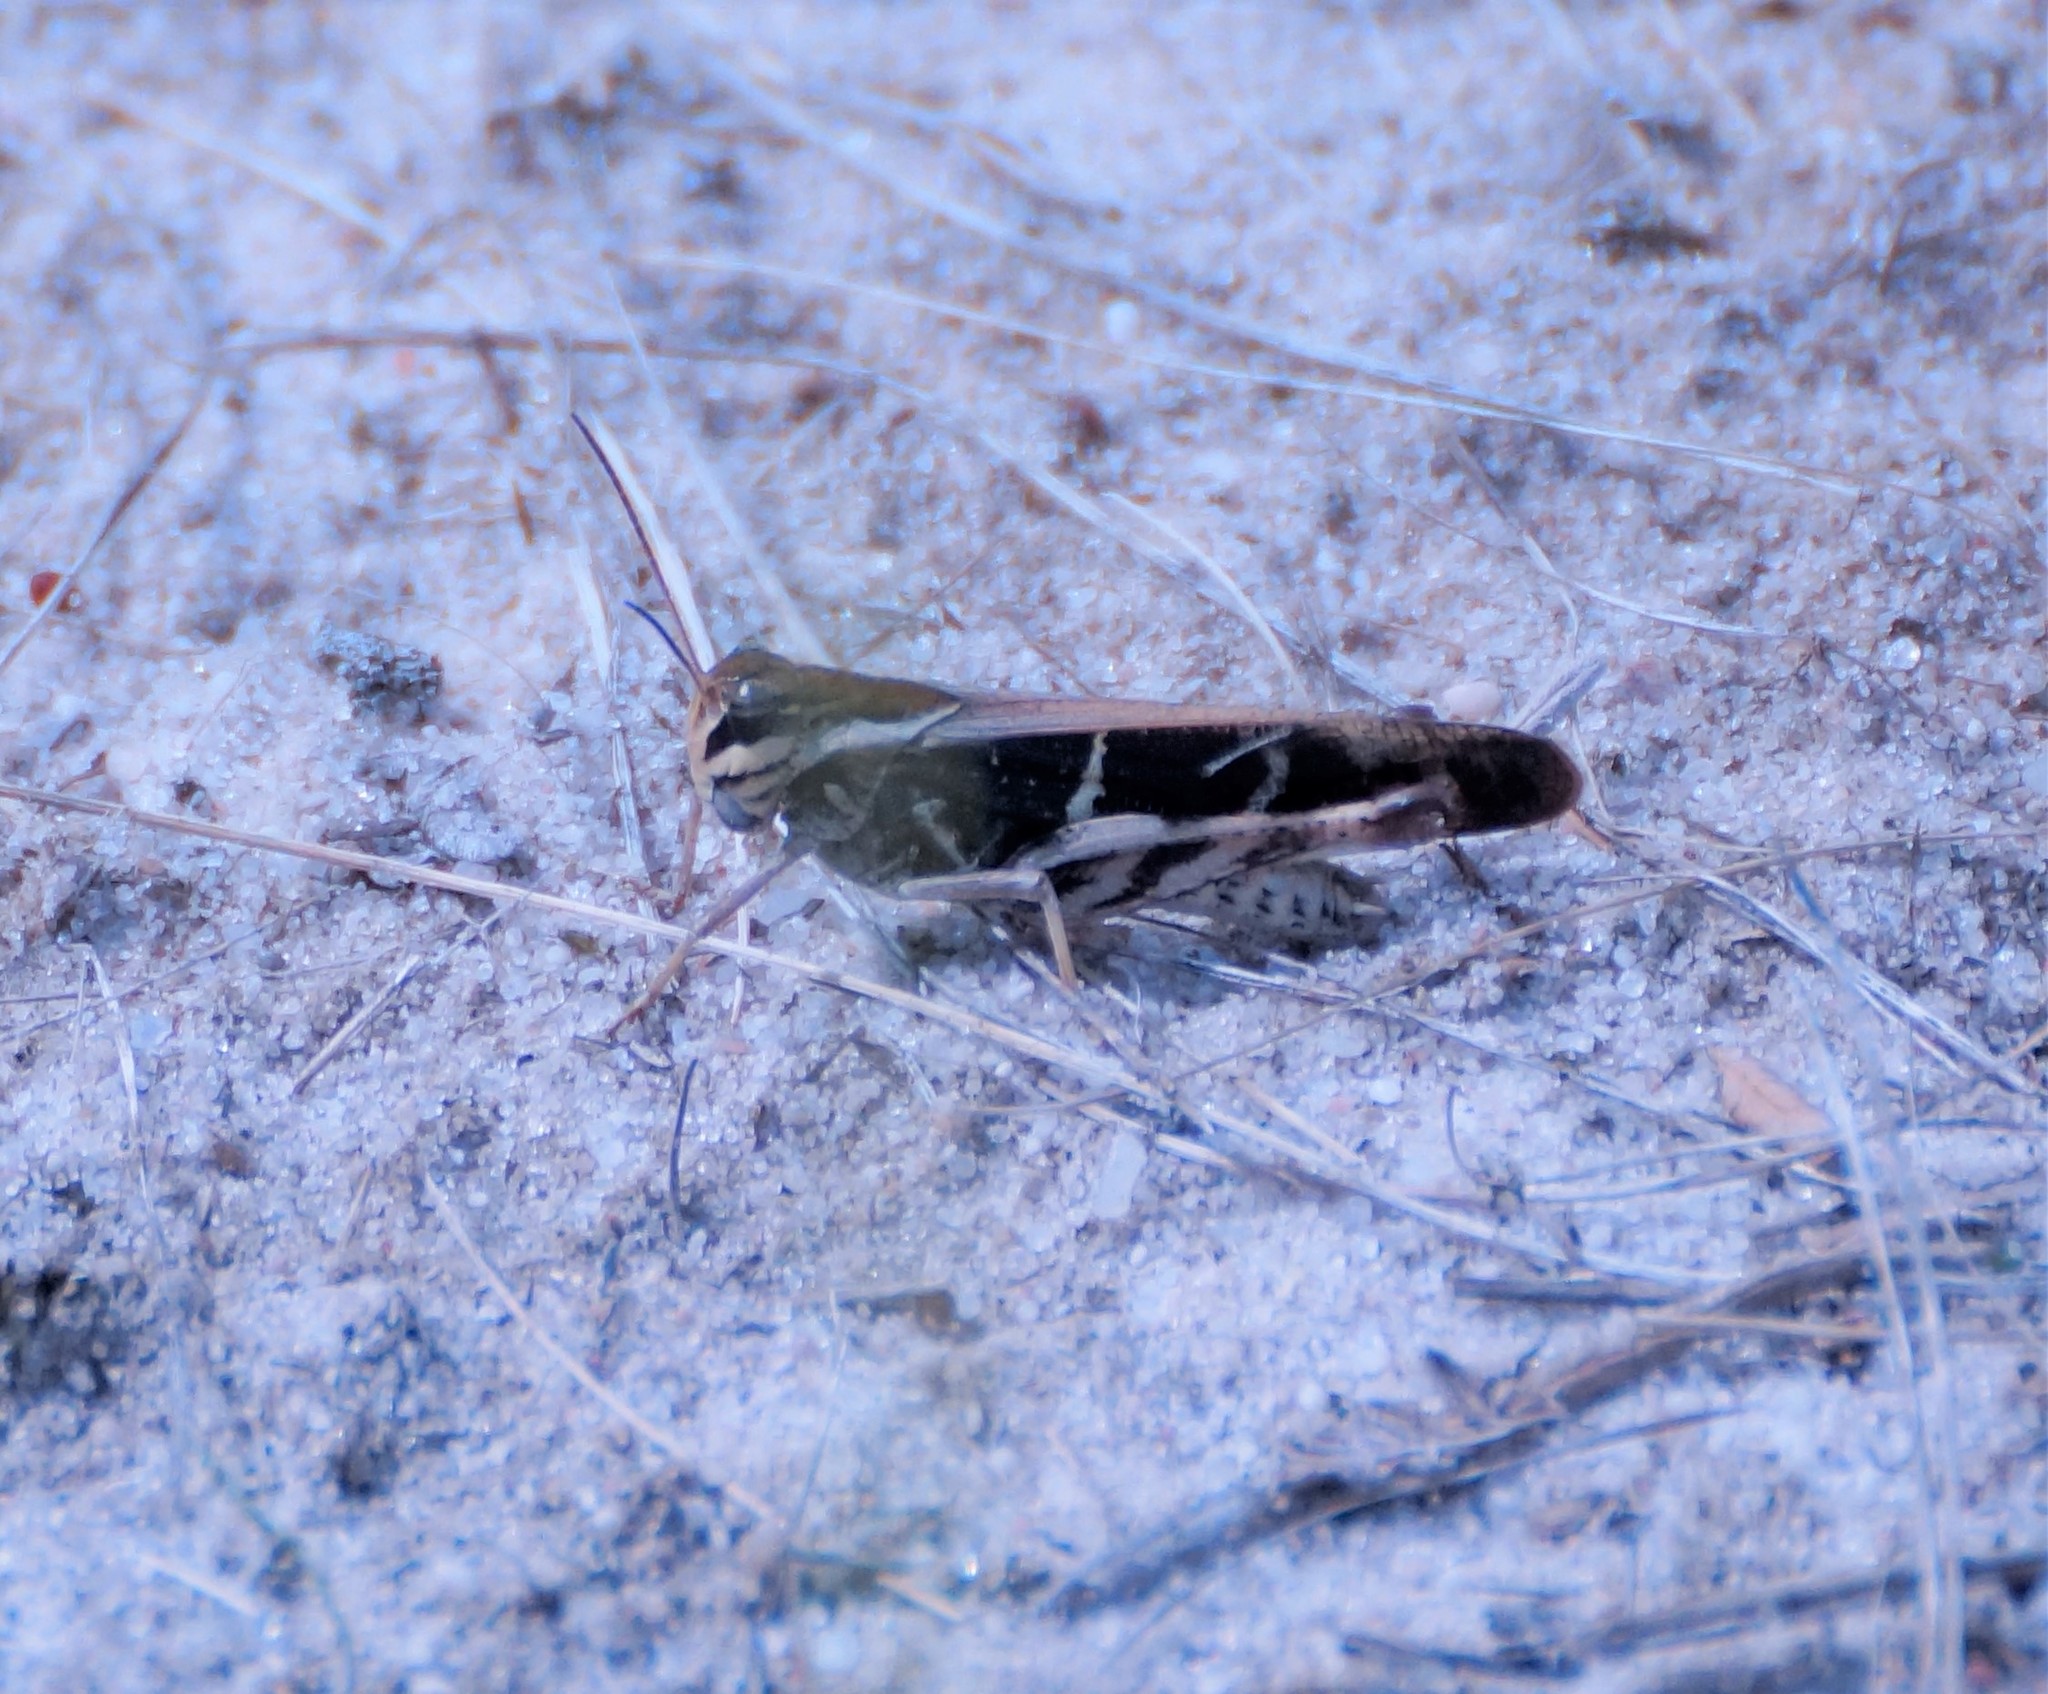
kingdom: Animalia
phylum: Arthropoda
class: Insecta
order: Orthoptera
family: Acrididae
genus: Gastrimargus
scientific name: Gastrimargus musicus
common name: Yellow-winged locust
